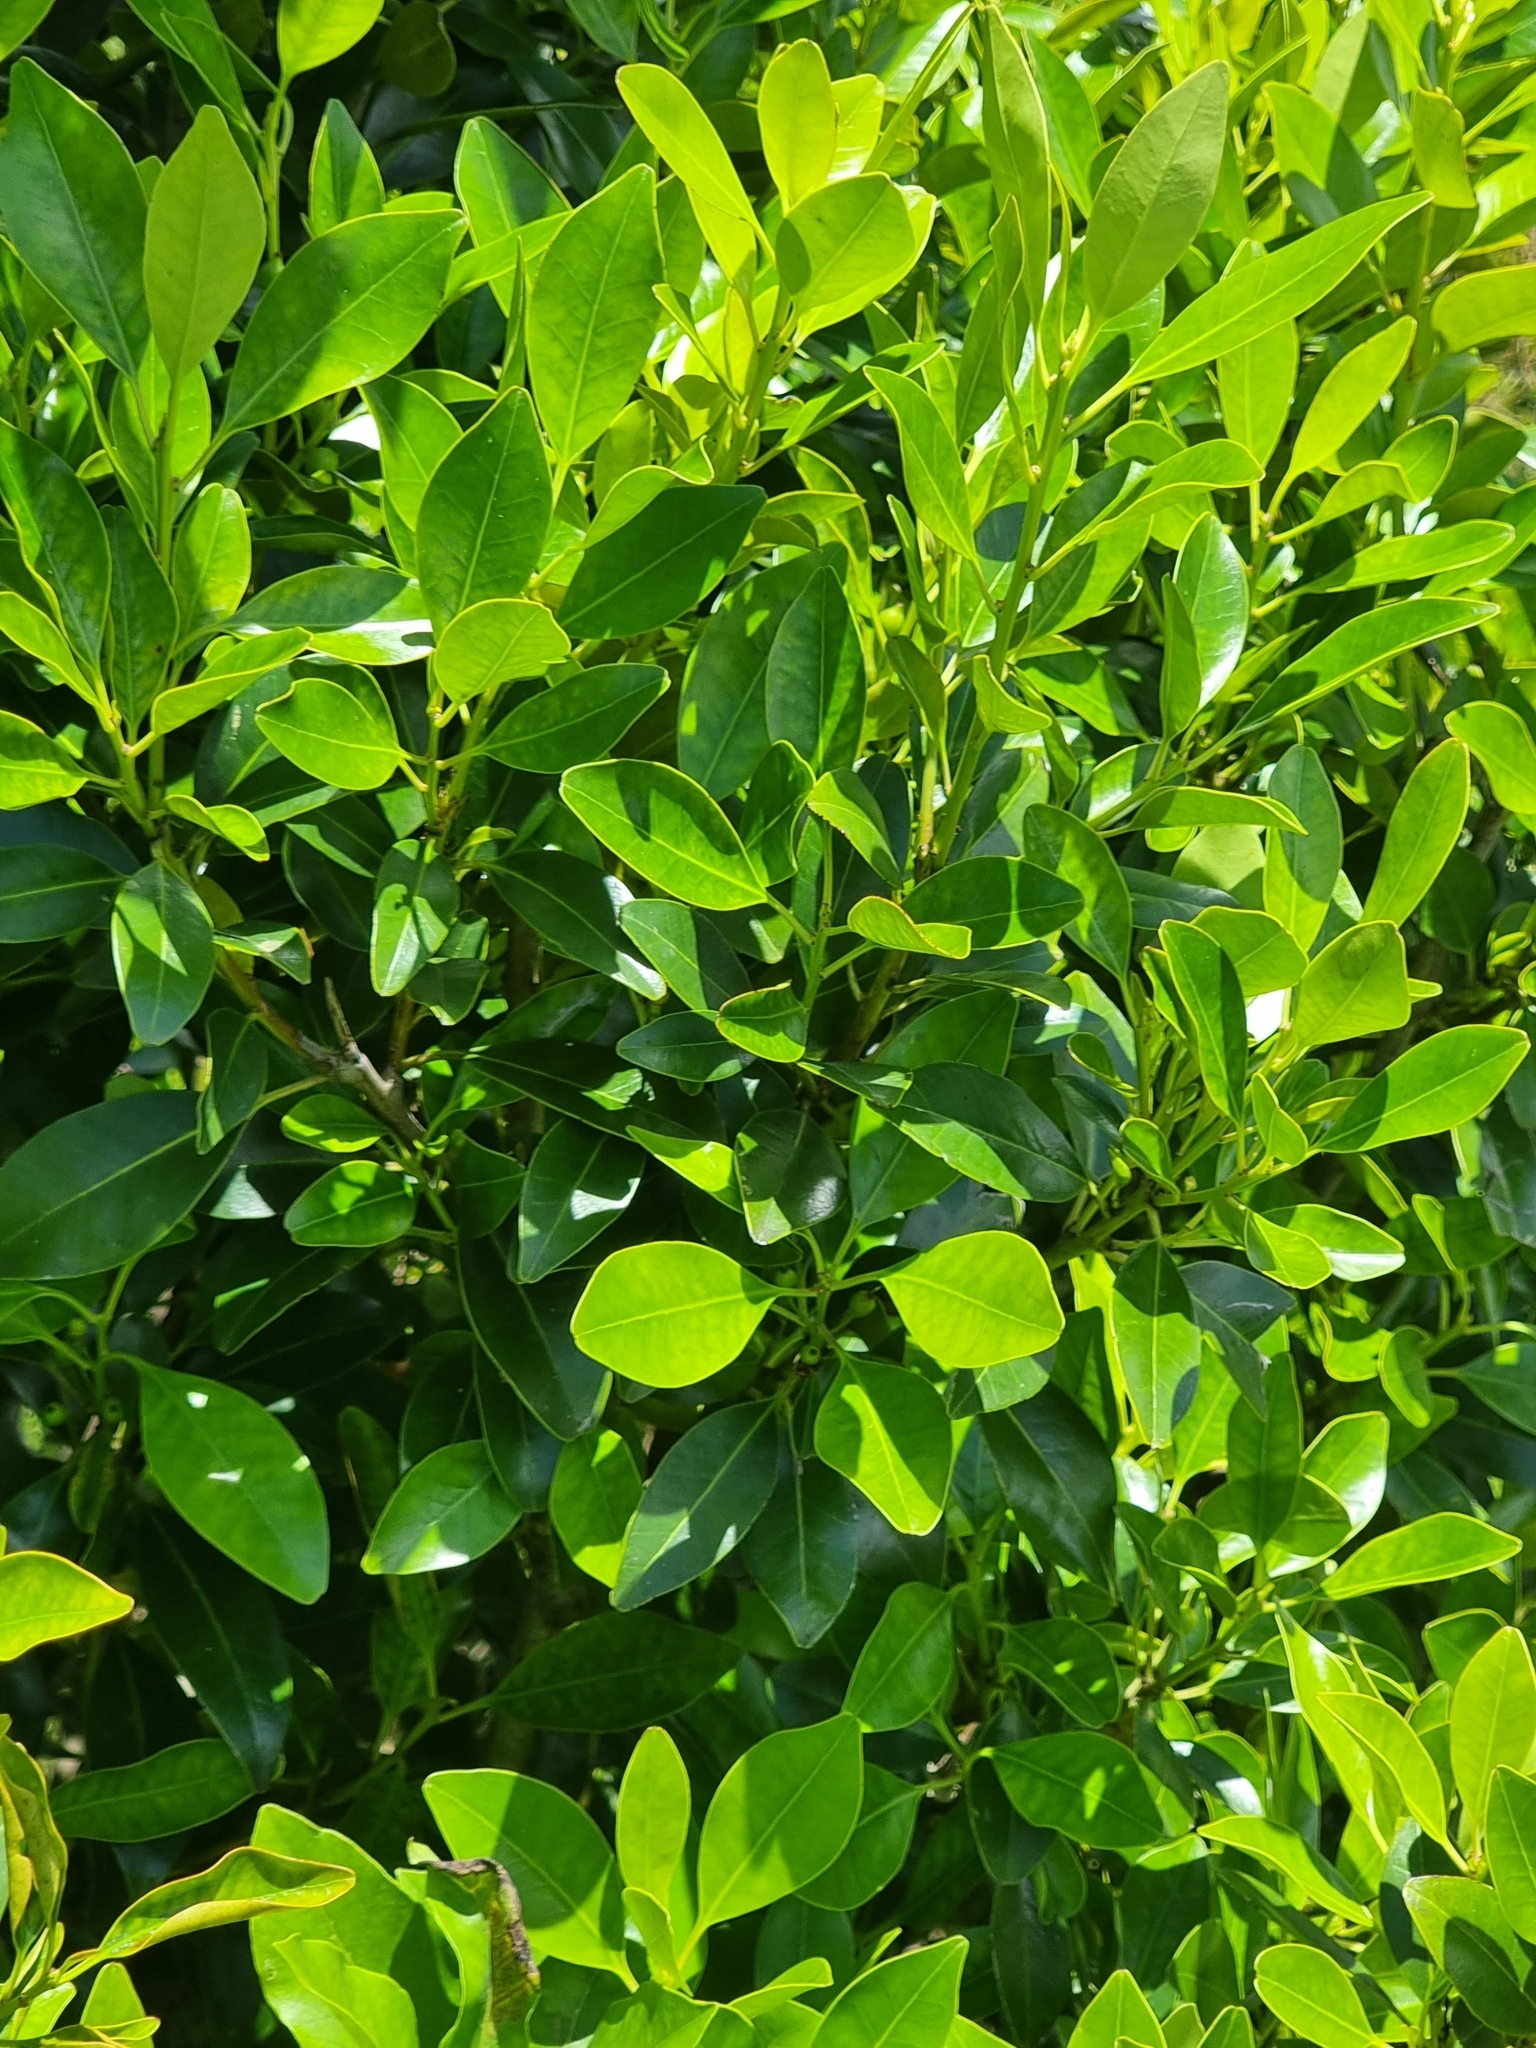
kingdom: Plantae
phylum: Tracheophyta
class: Magnoliopsida
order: Aquifoliales
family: Aquifoliaceae
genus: Ilex
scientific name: Ilex canariensis
